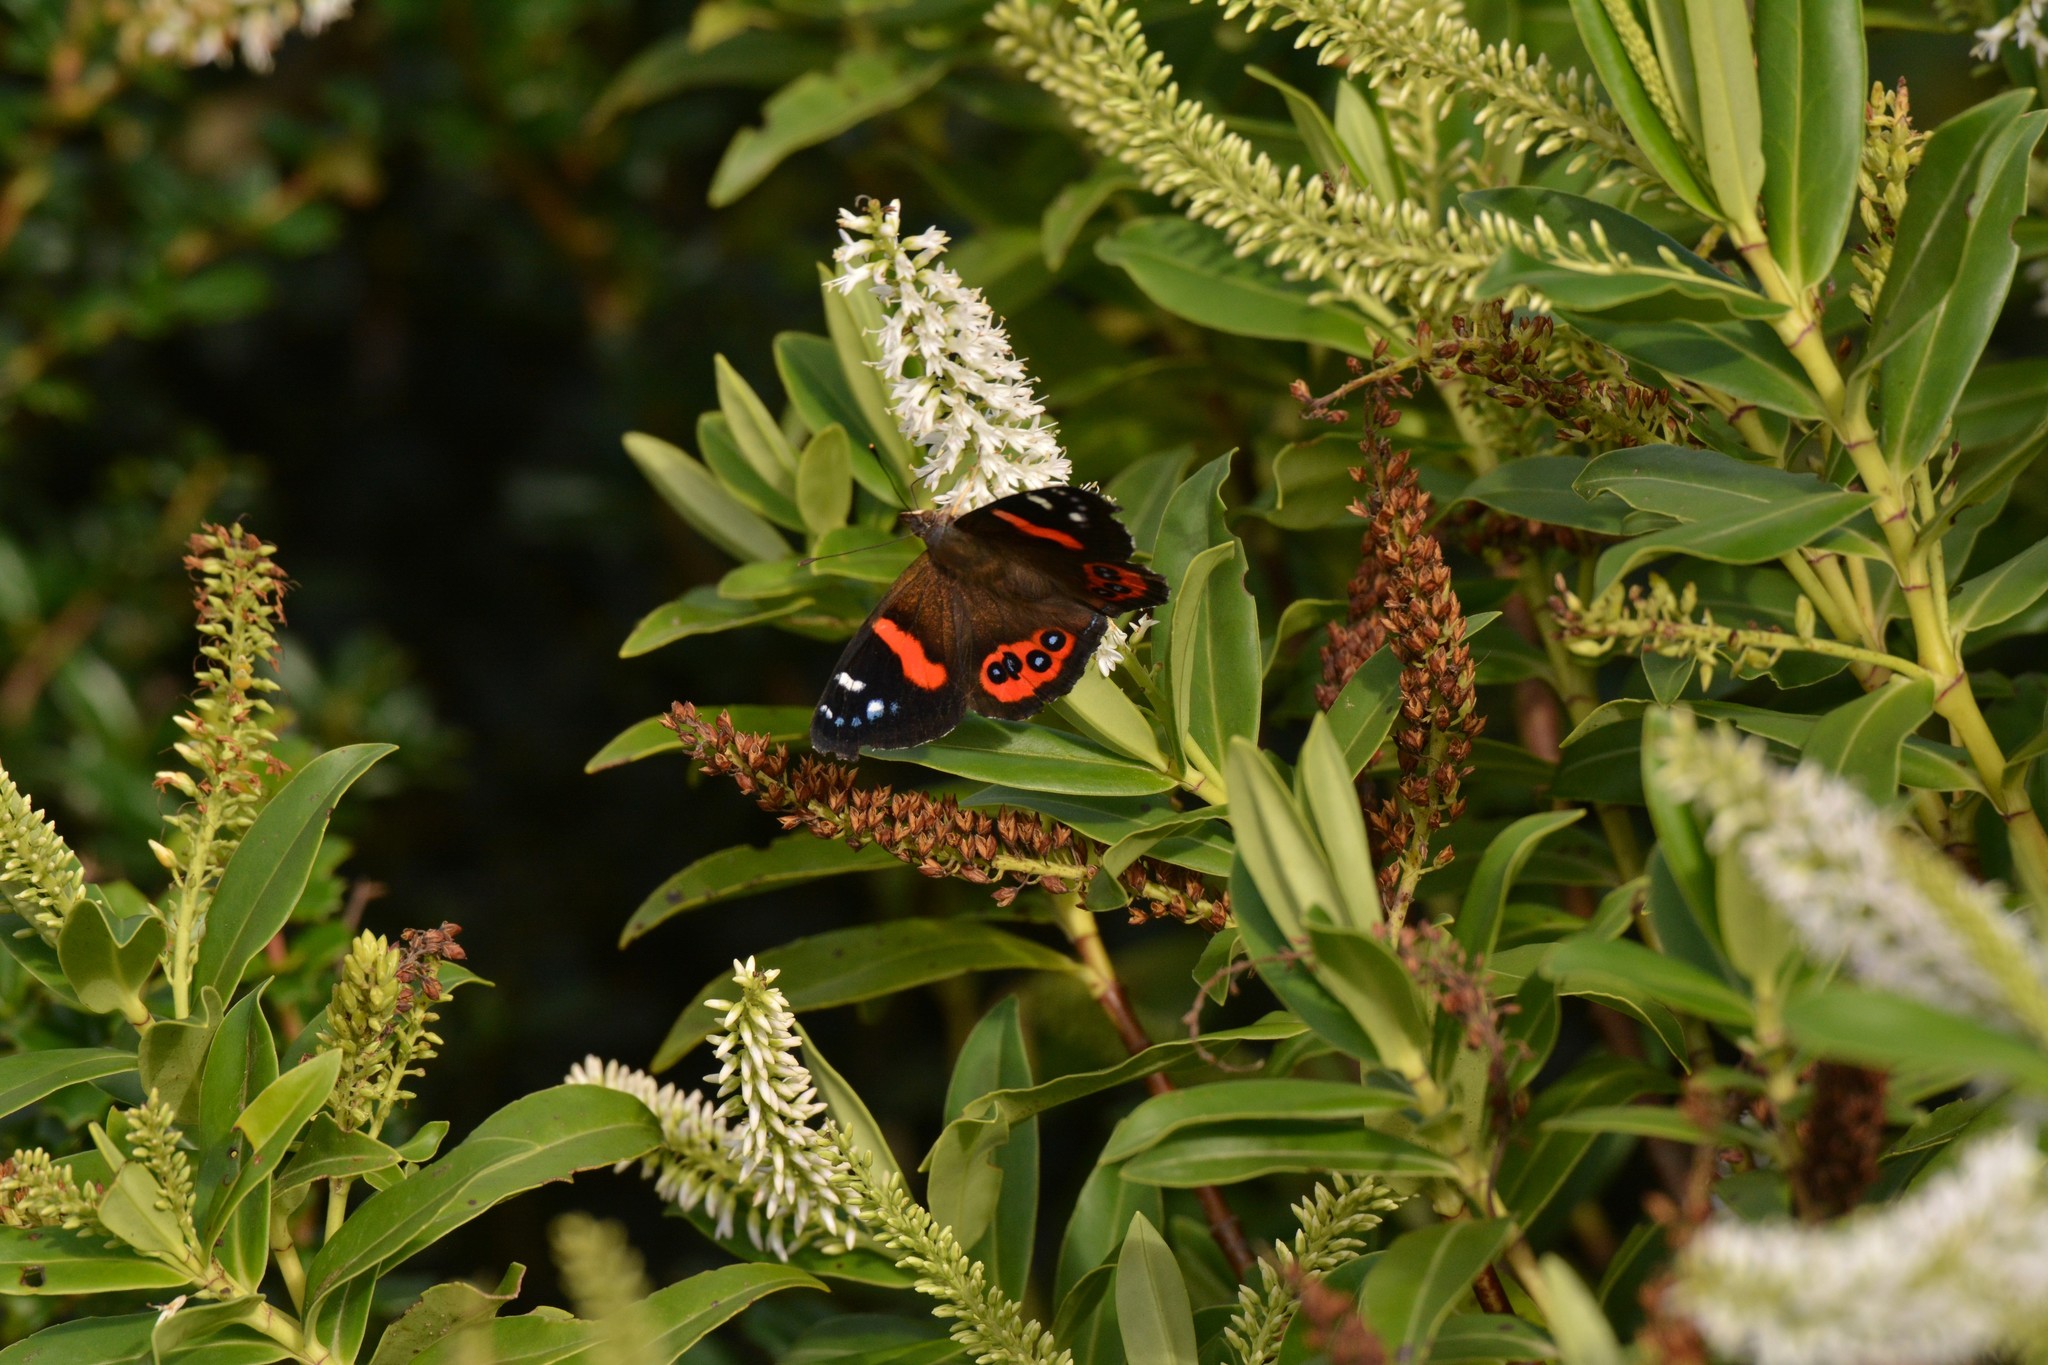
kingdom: Animalia
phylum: Arthropoda
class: Insecta
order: Lepidoptera
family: Nymphalidae
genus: Vanessa
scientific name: Vanessa gonerilla
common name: New zealand red admiral
